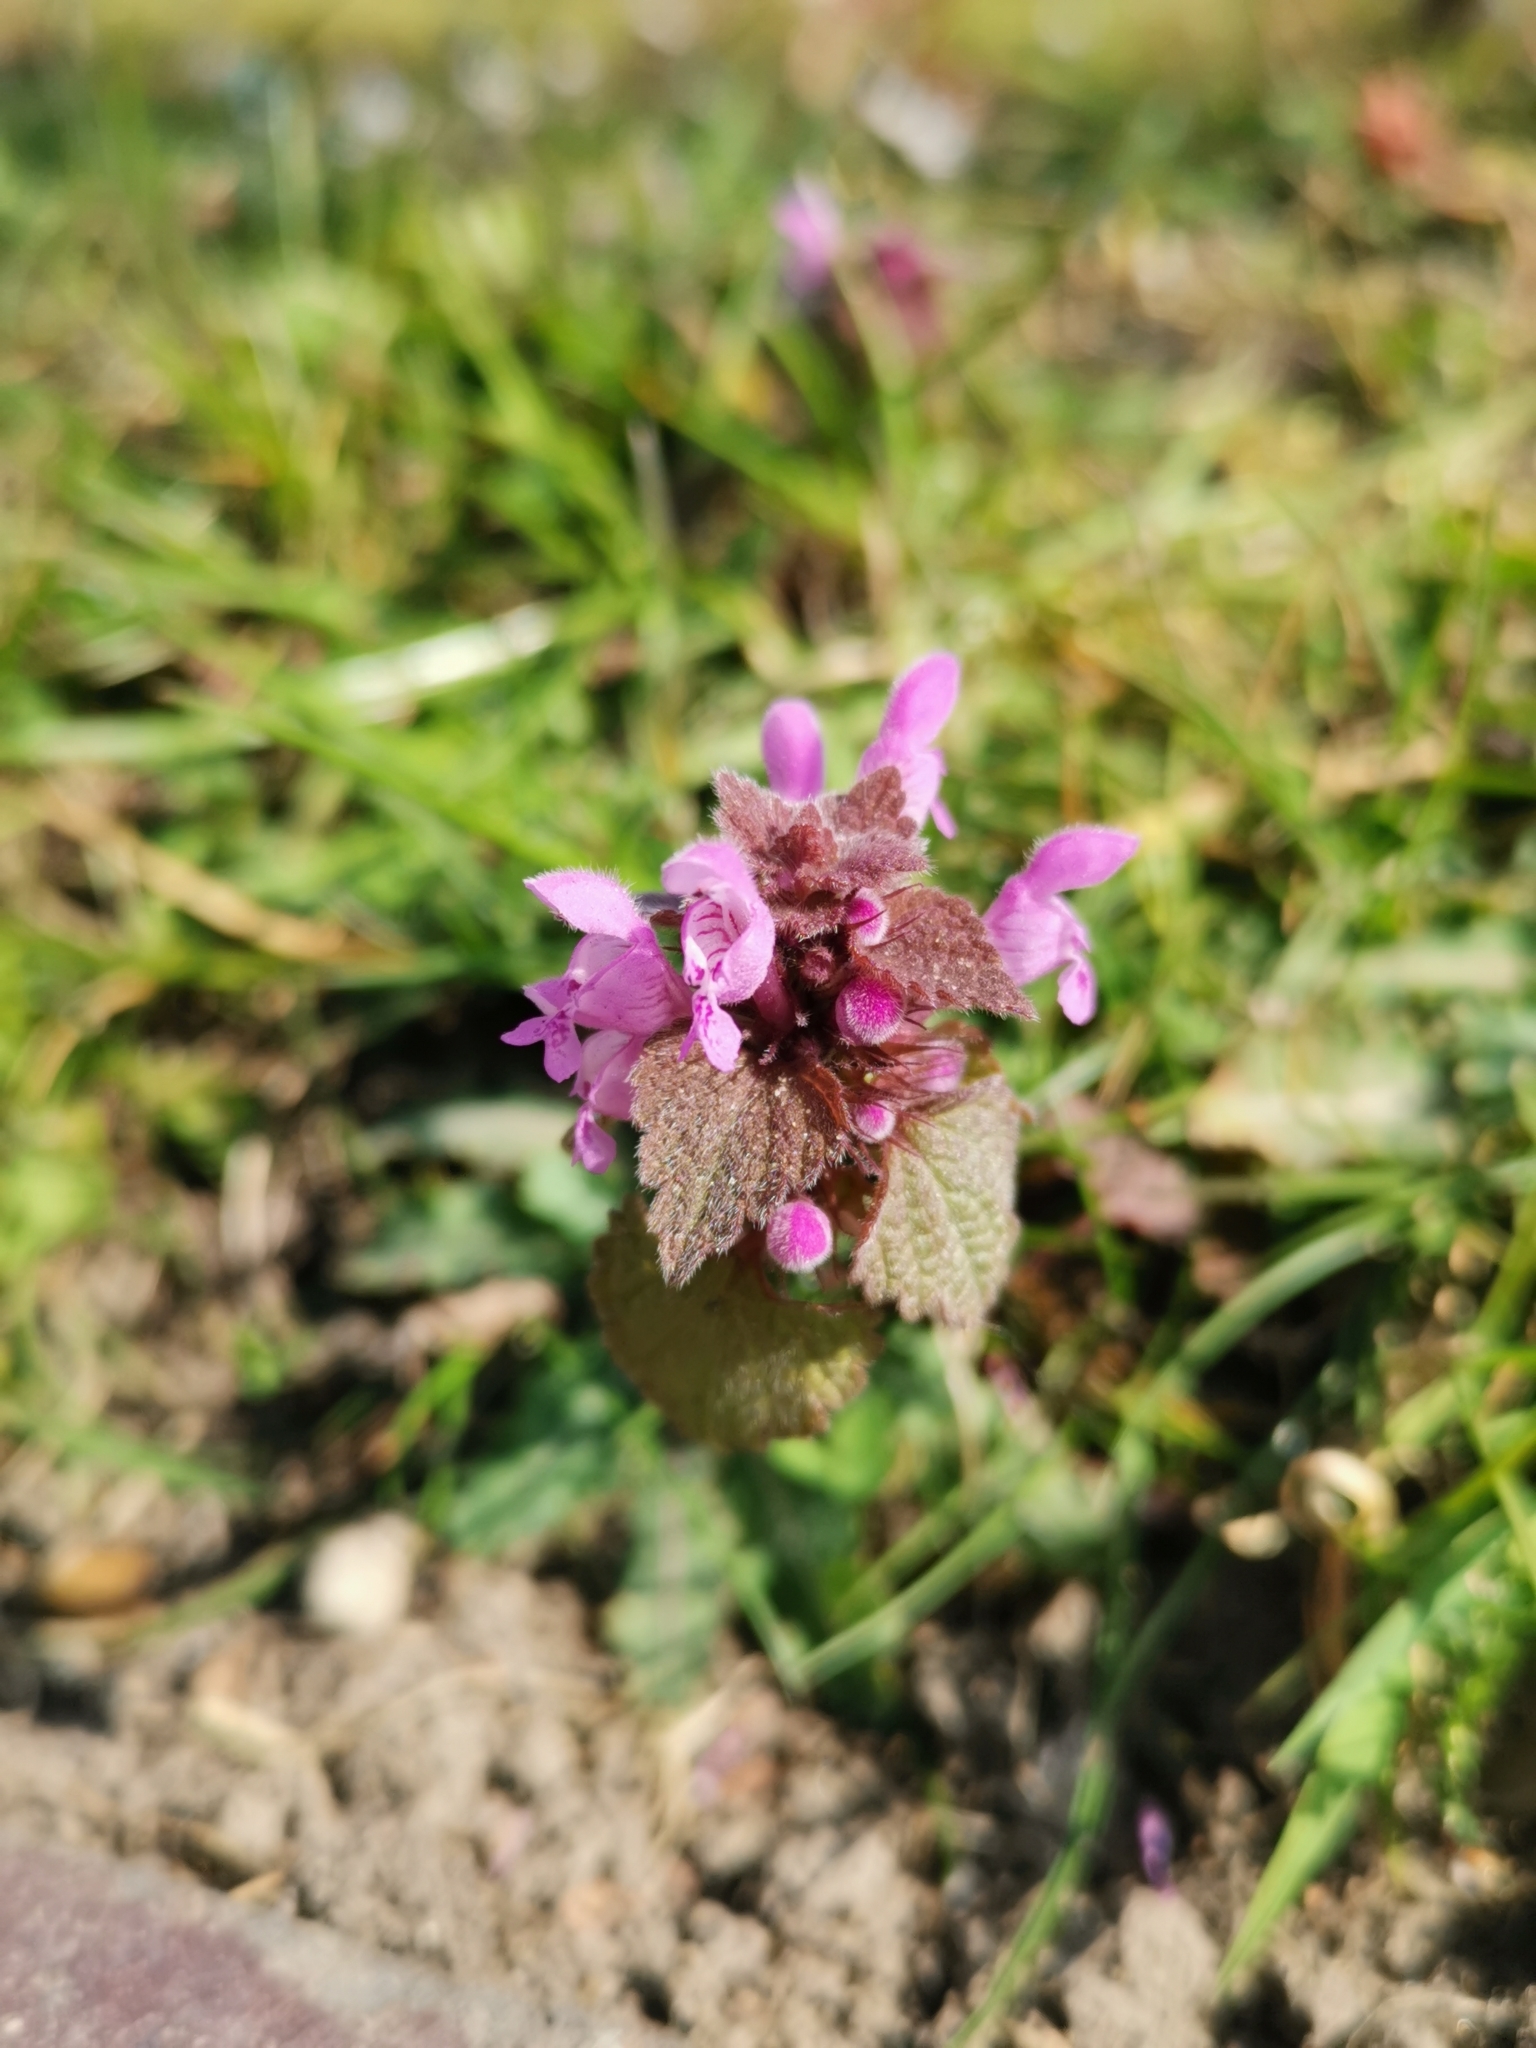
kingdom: Plantae
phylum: Tracheophyta
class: Magnoliopsida
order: Lamiales
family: Lamiaceae
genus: Lamium
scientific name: Lamium purpureum
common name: Red dead-nettle
